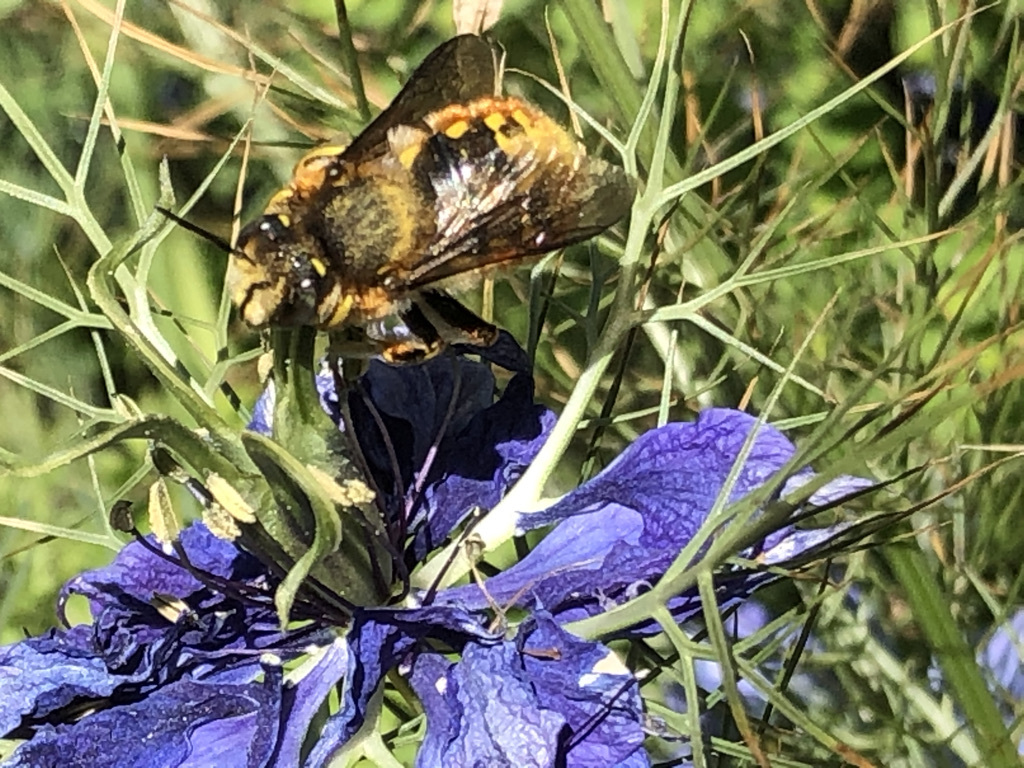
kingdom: Animalia
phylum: Arthropoda
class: Insecta
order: Hymenoptera
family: Megachilidae
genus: Anthidium
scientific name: Anthidium manicatum
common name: Wool carder bee
